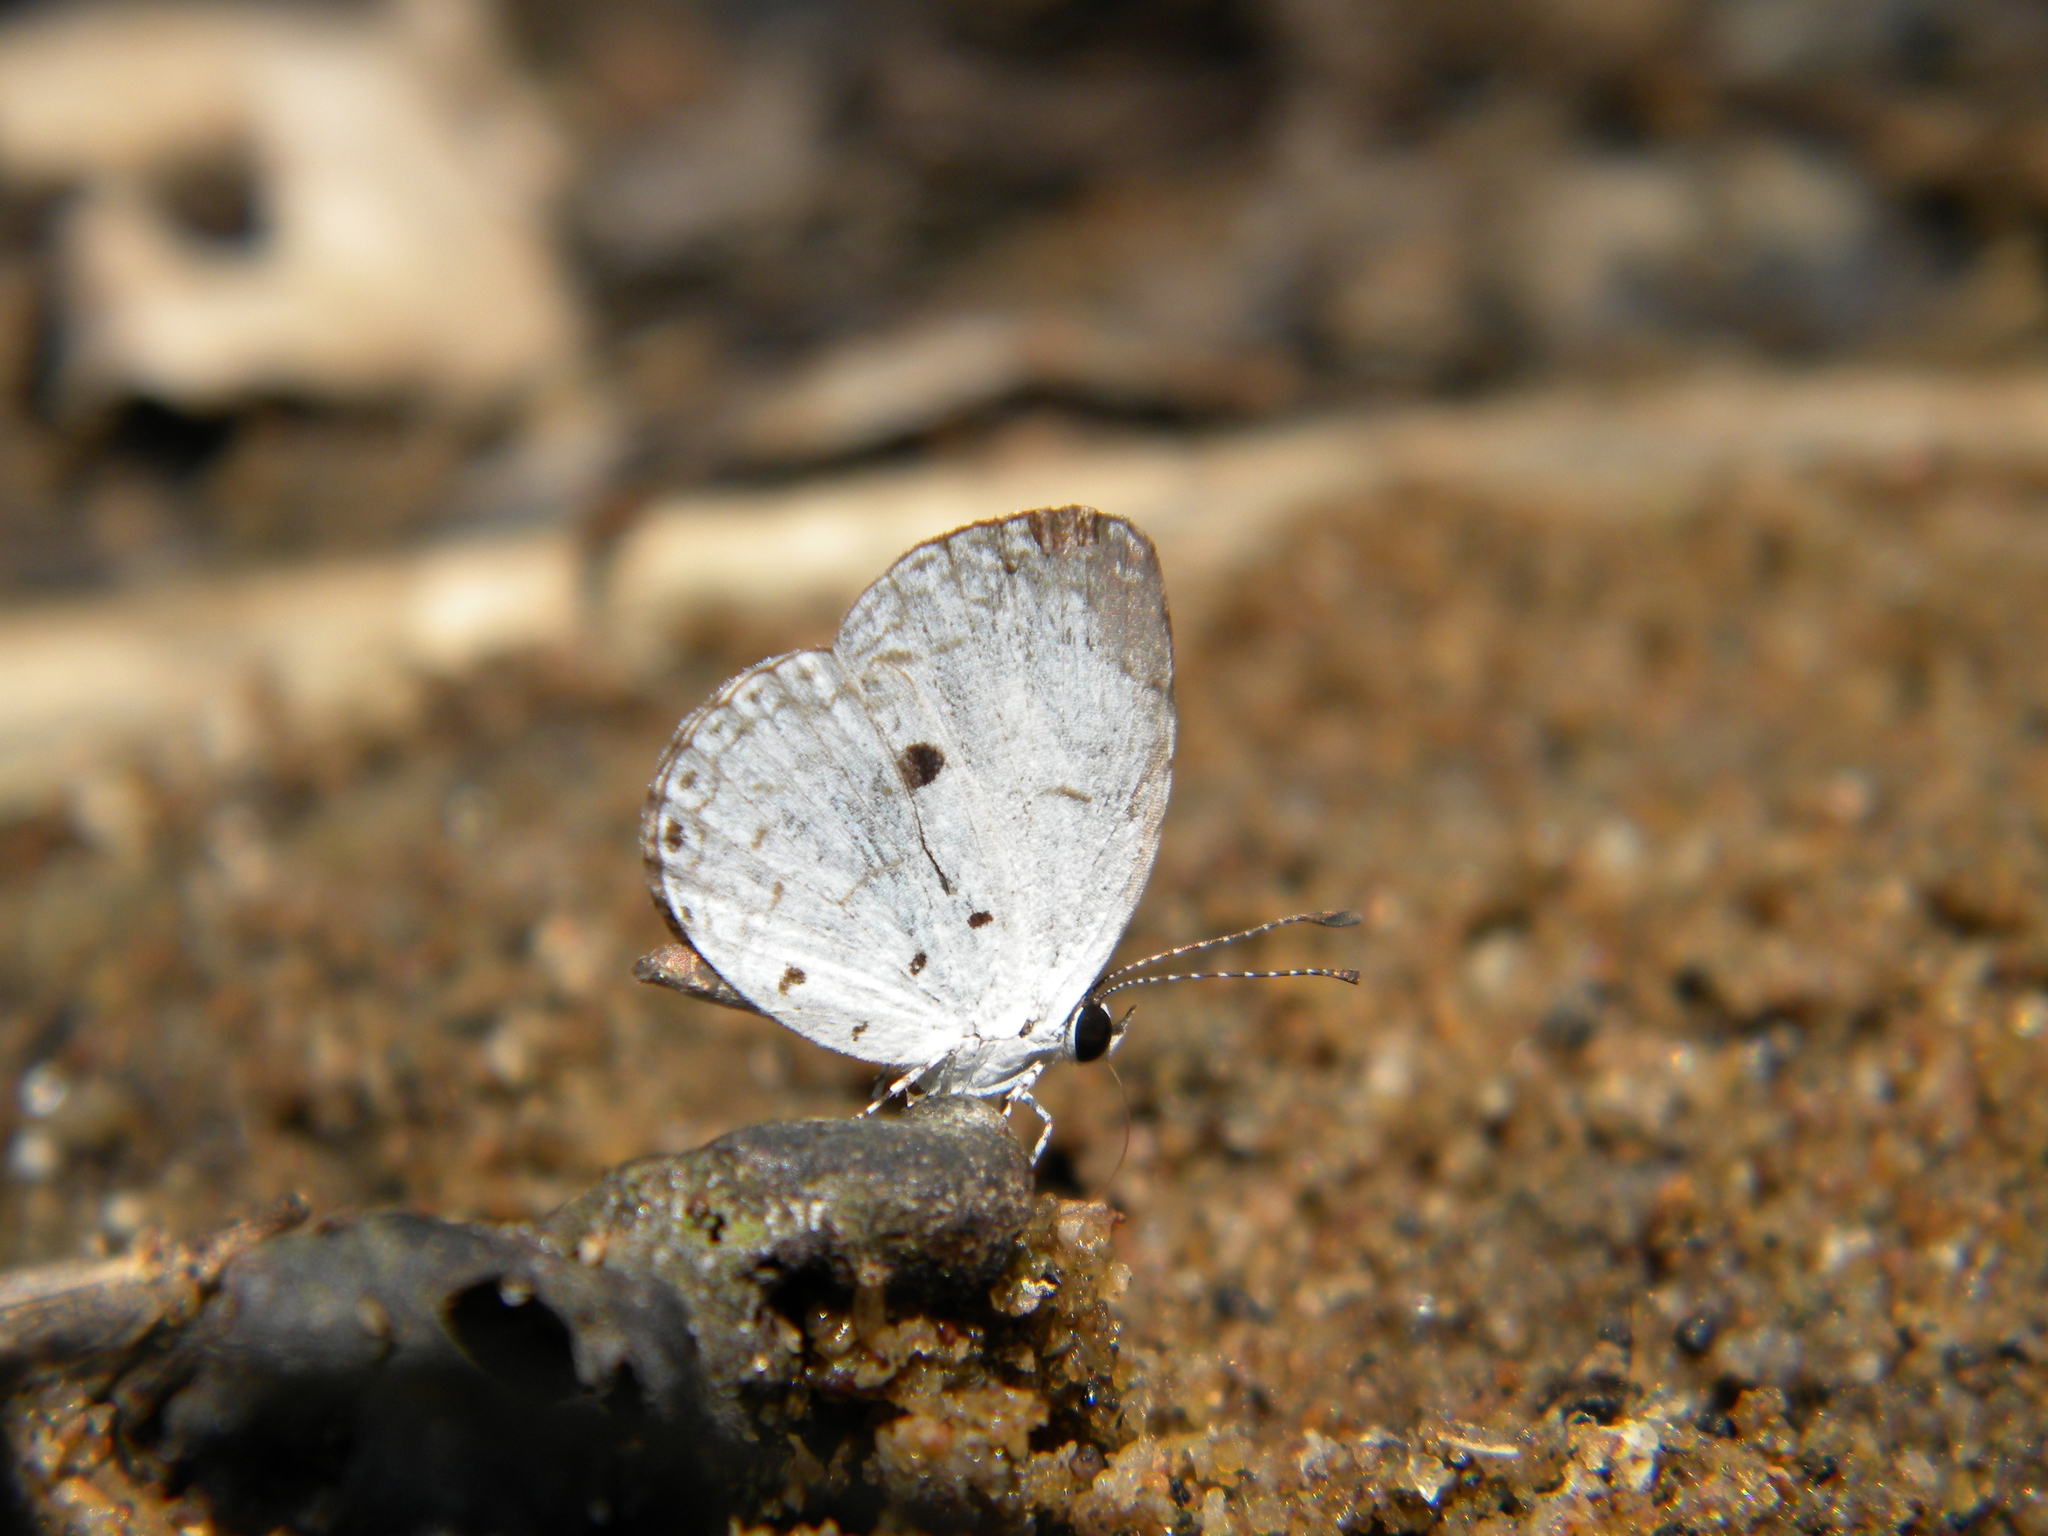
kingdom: Animalia
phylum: Arthropoda
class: Insecta
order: Lepidoptera
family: Lycaenidae
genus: Neopithecops
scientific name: Neopithecops zalmora
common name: Quaker
